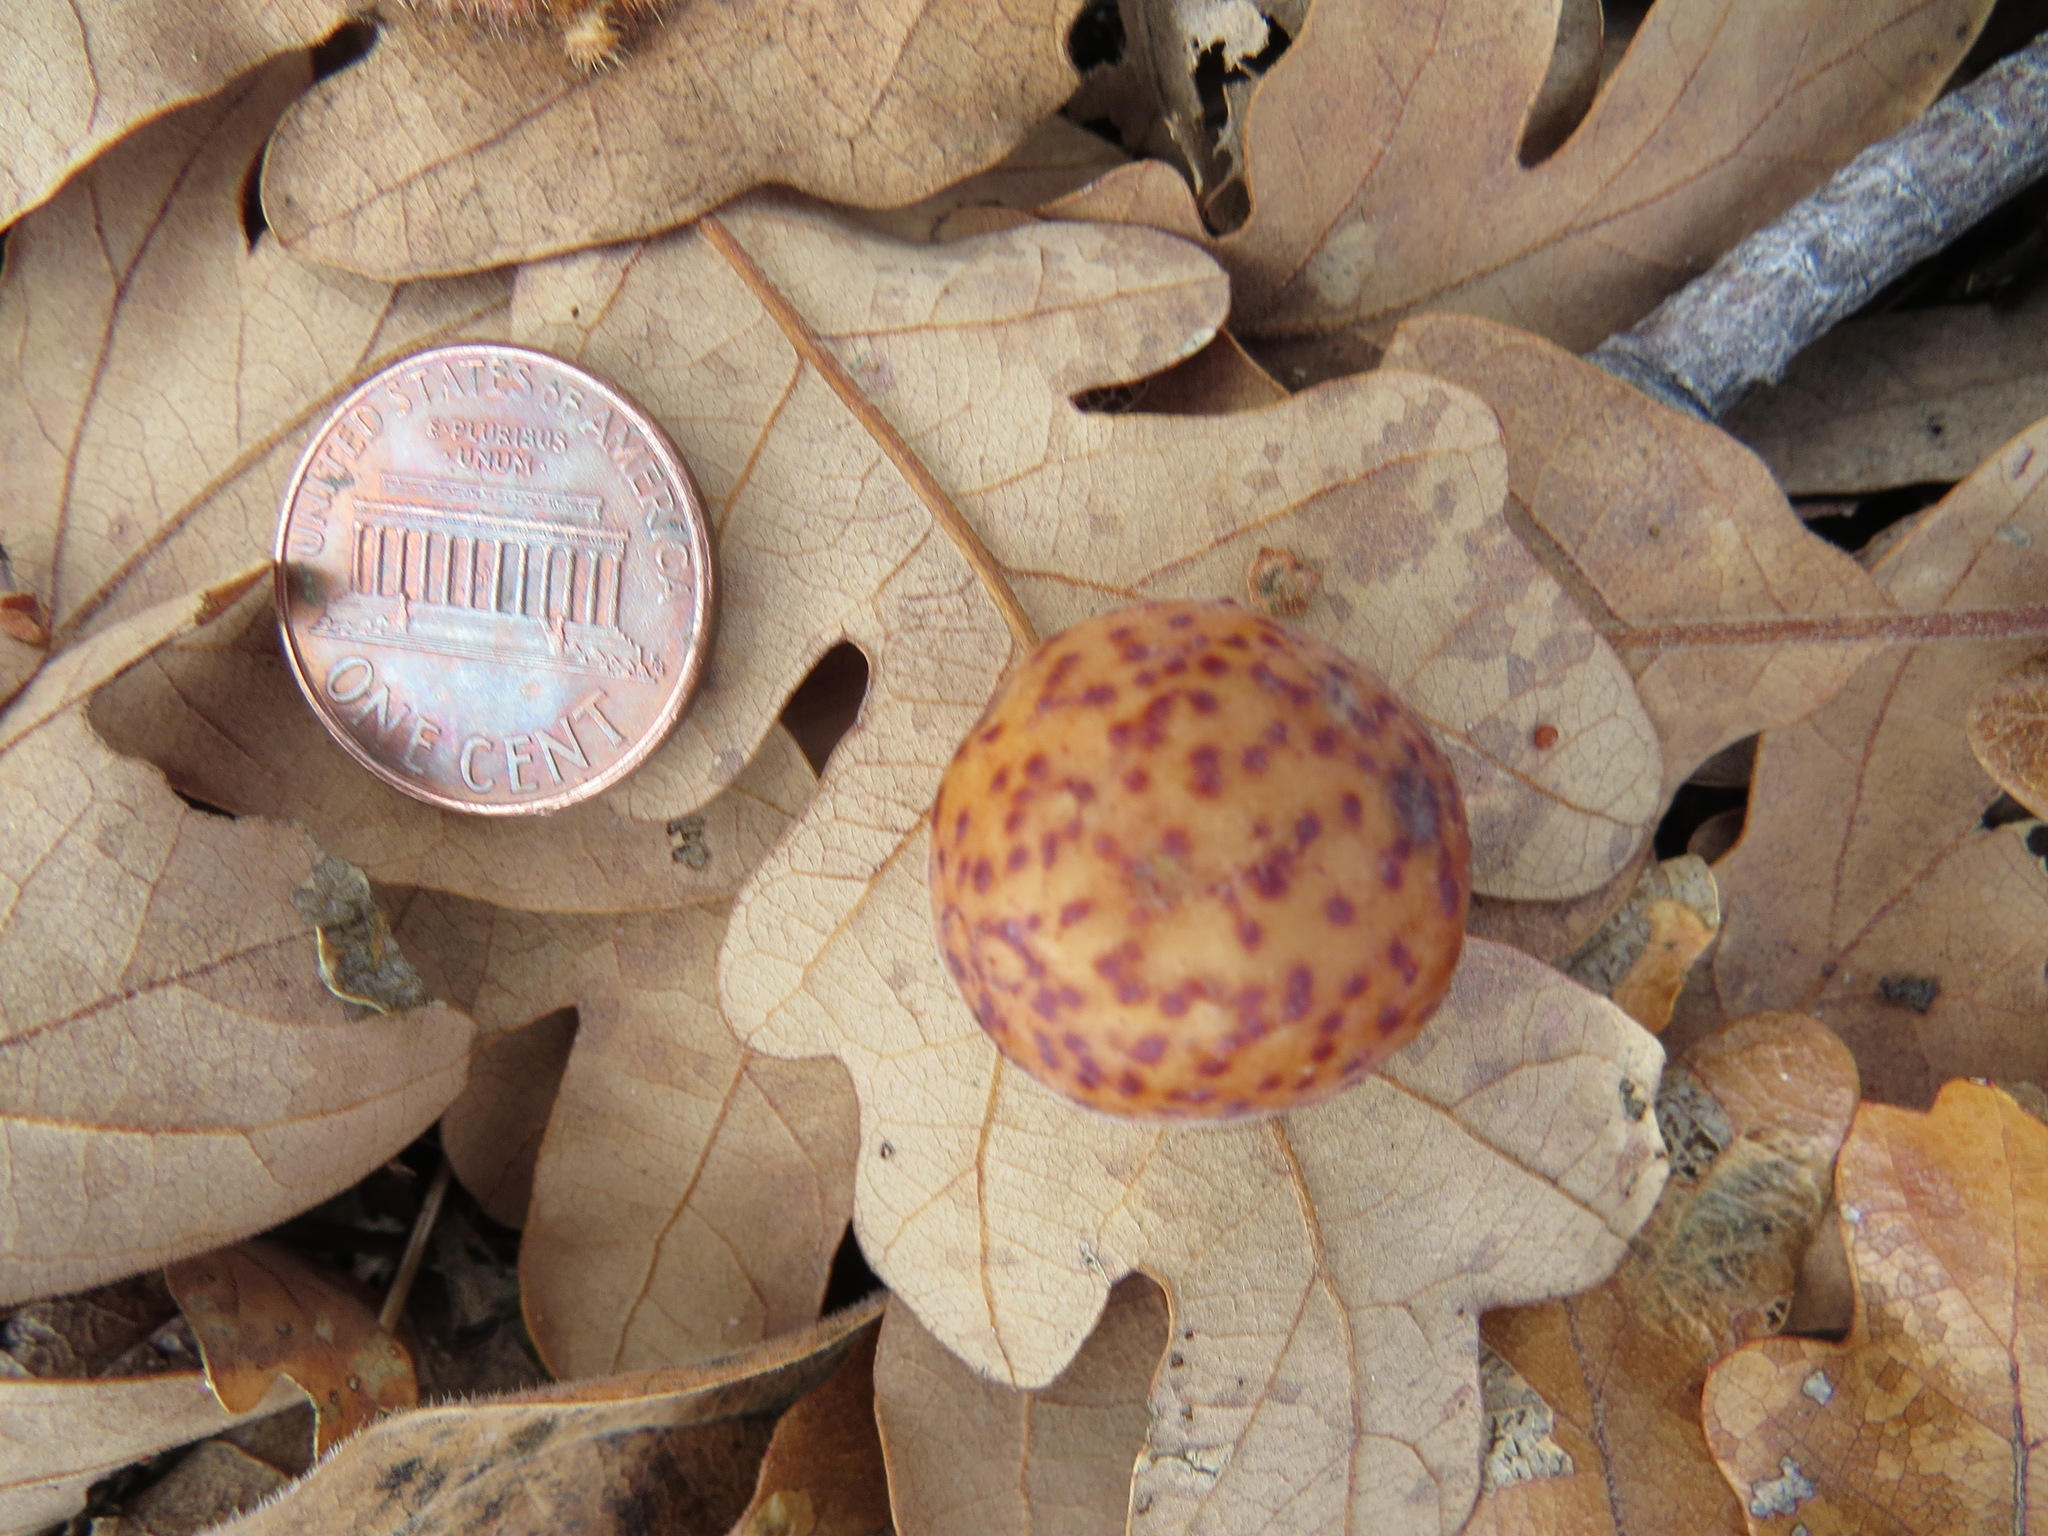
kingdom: Animalia
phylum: Arthropoda
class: Insecta
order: Hymenoptera
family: Cynipidae
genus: Cynips
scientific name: Cynips
